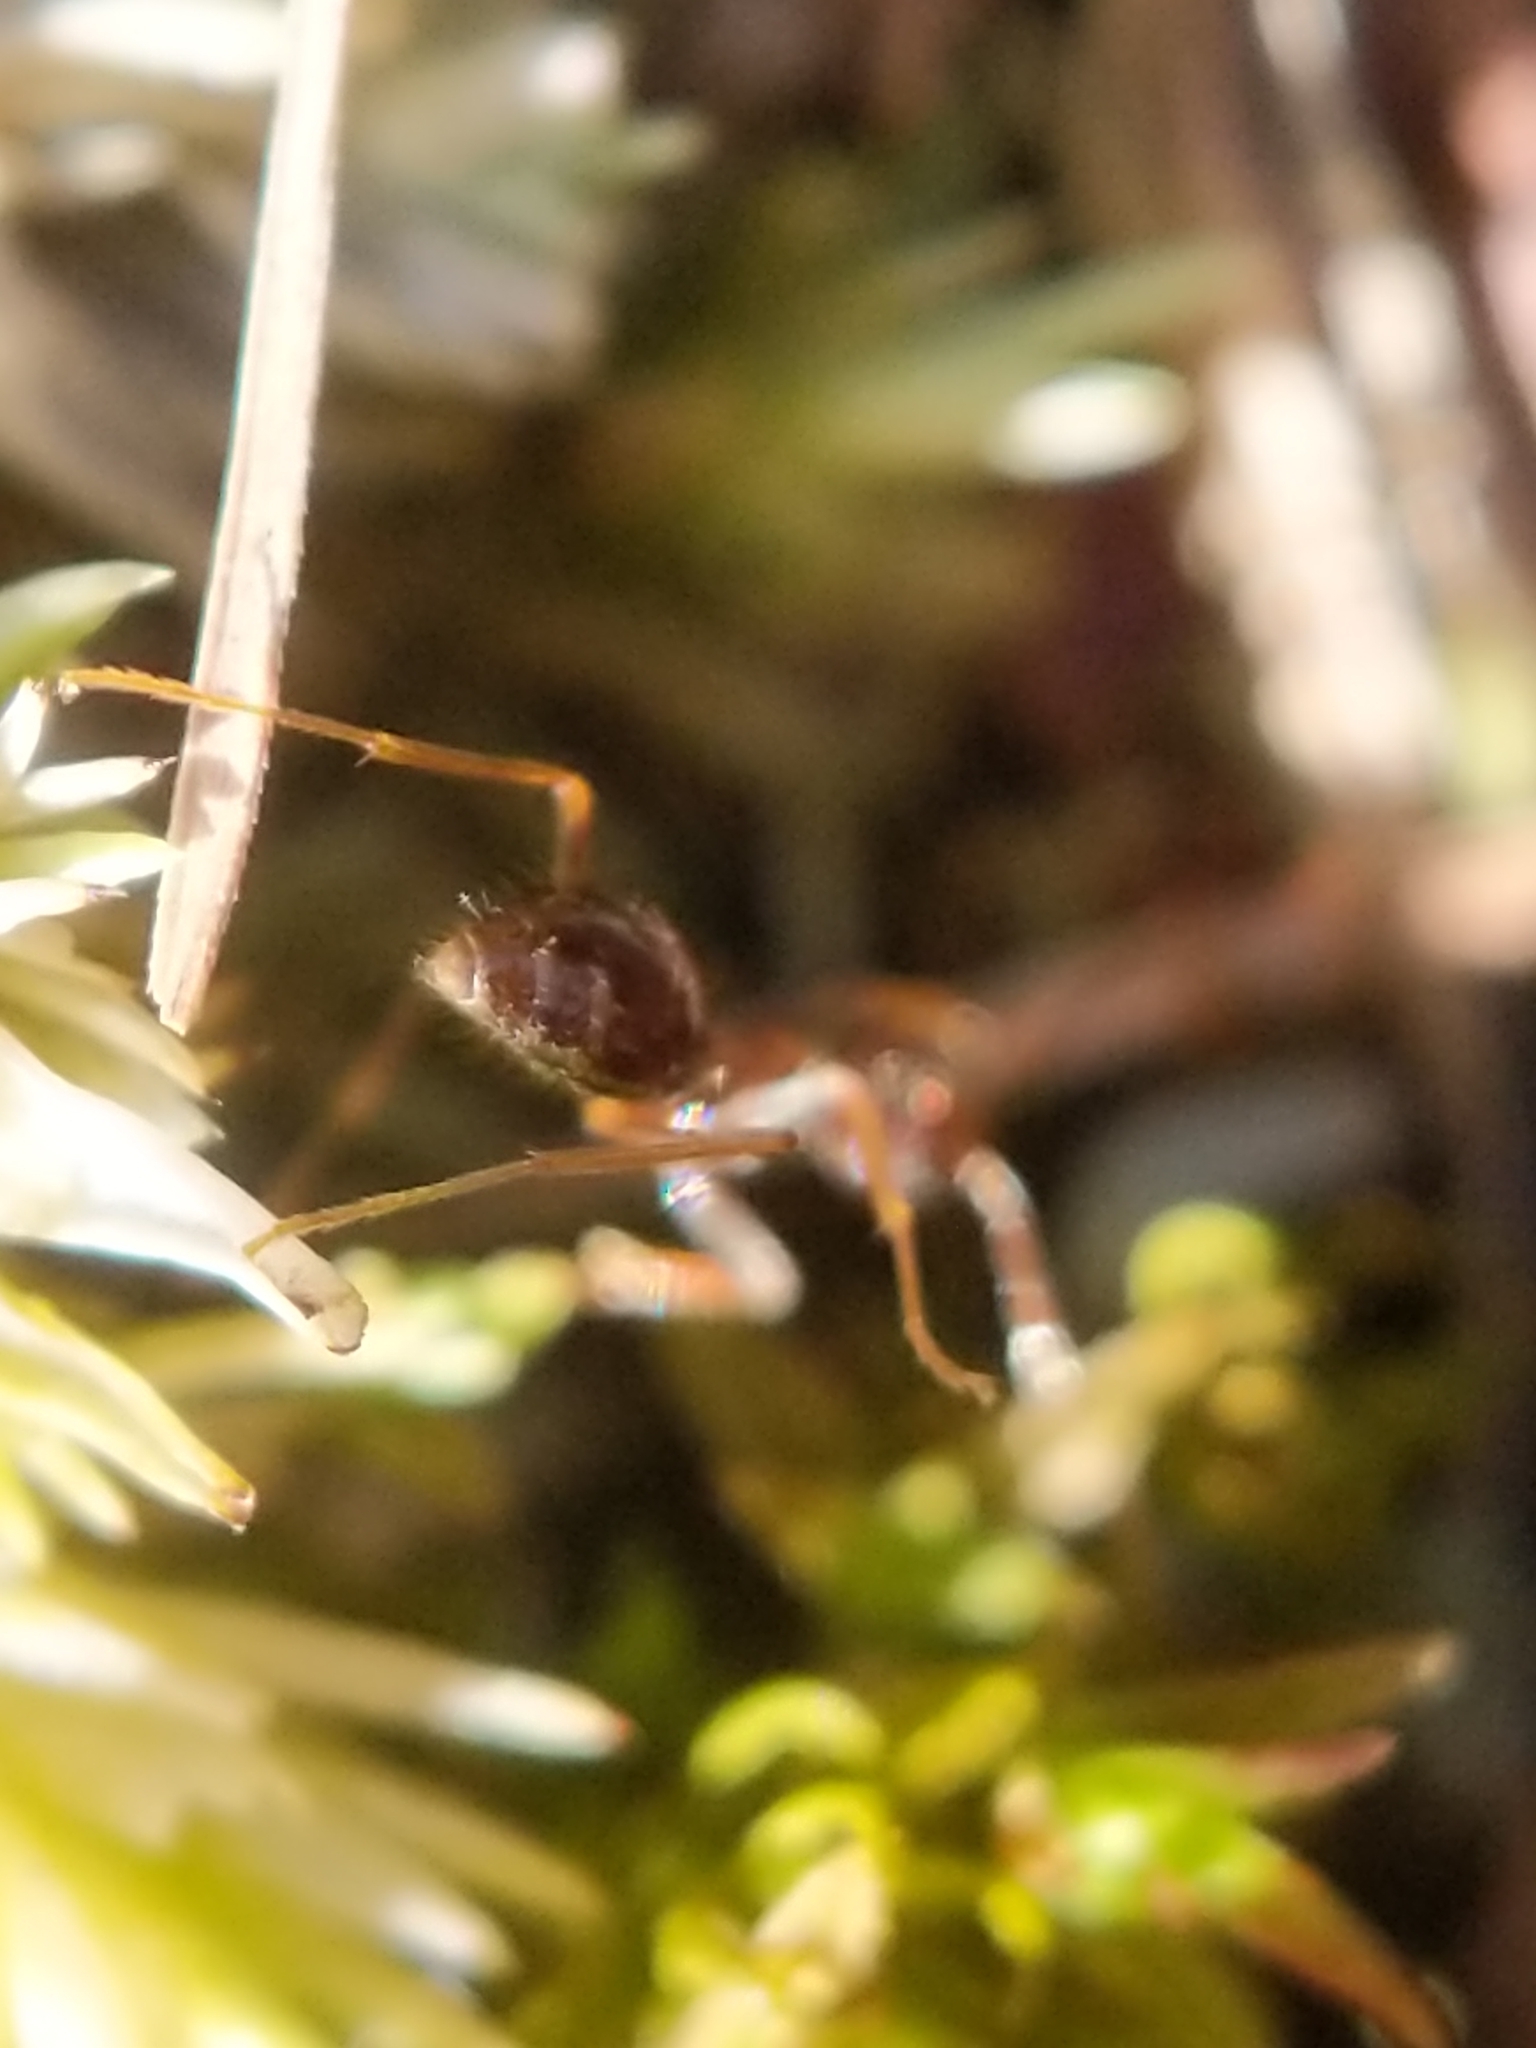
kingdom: Animalia
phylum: Arthropoda
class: Insecta
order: Hymenoptera
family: Formicidae
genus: Prenolepis
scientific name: Prenolepis imparis
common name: Small honey ant
